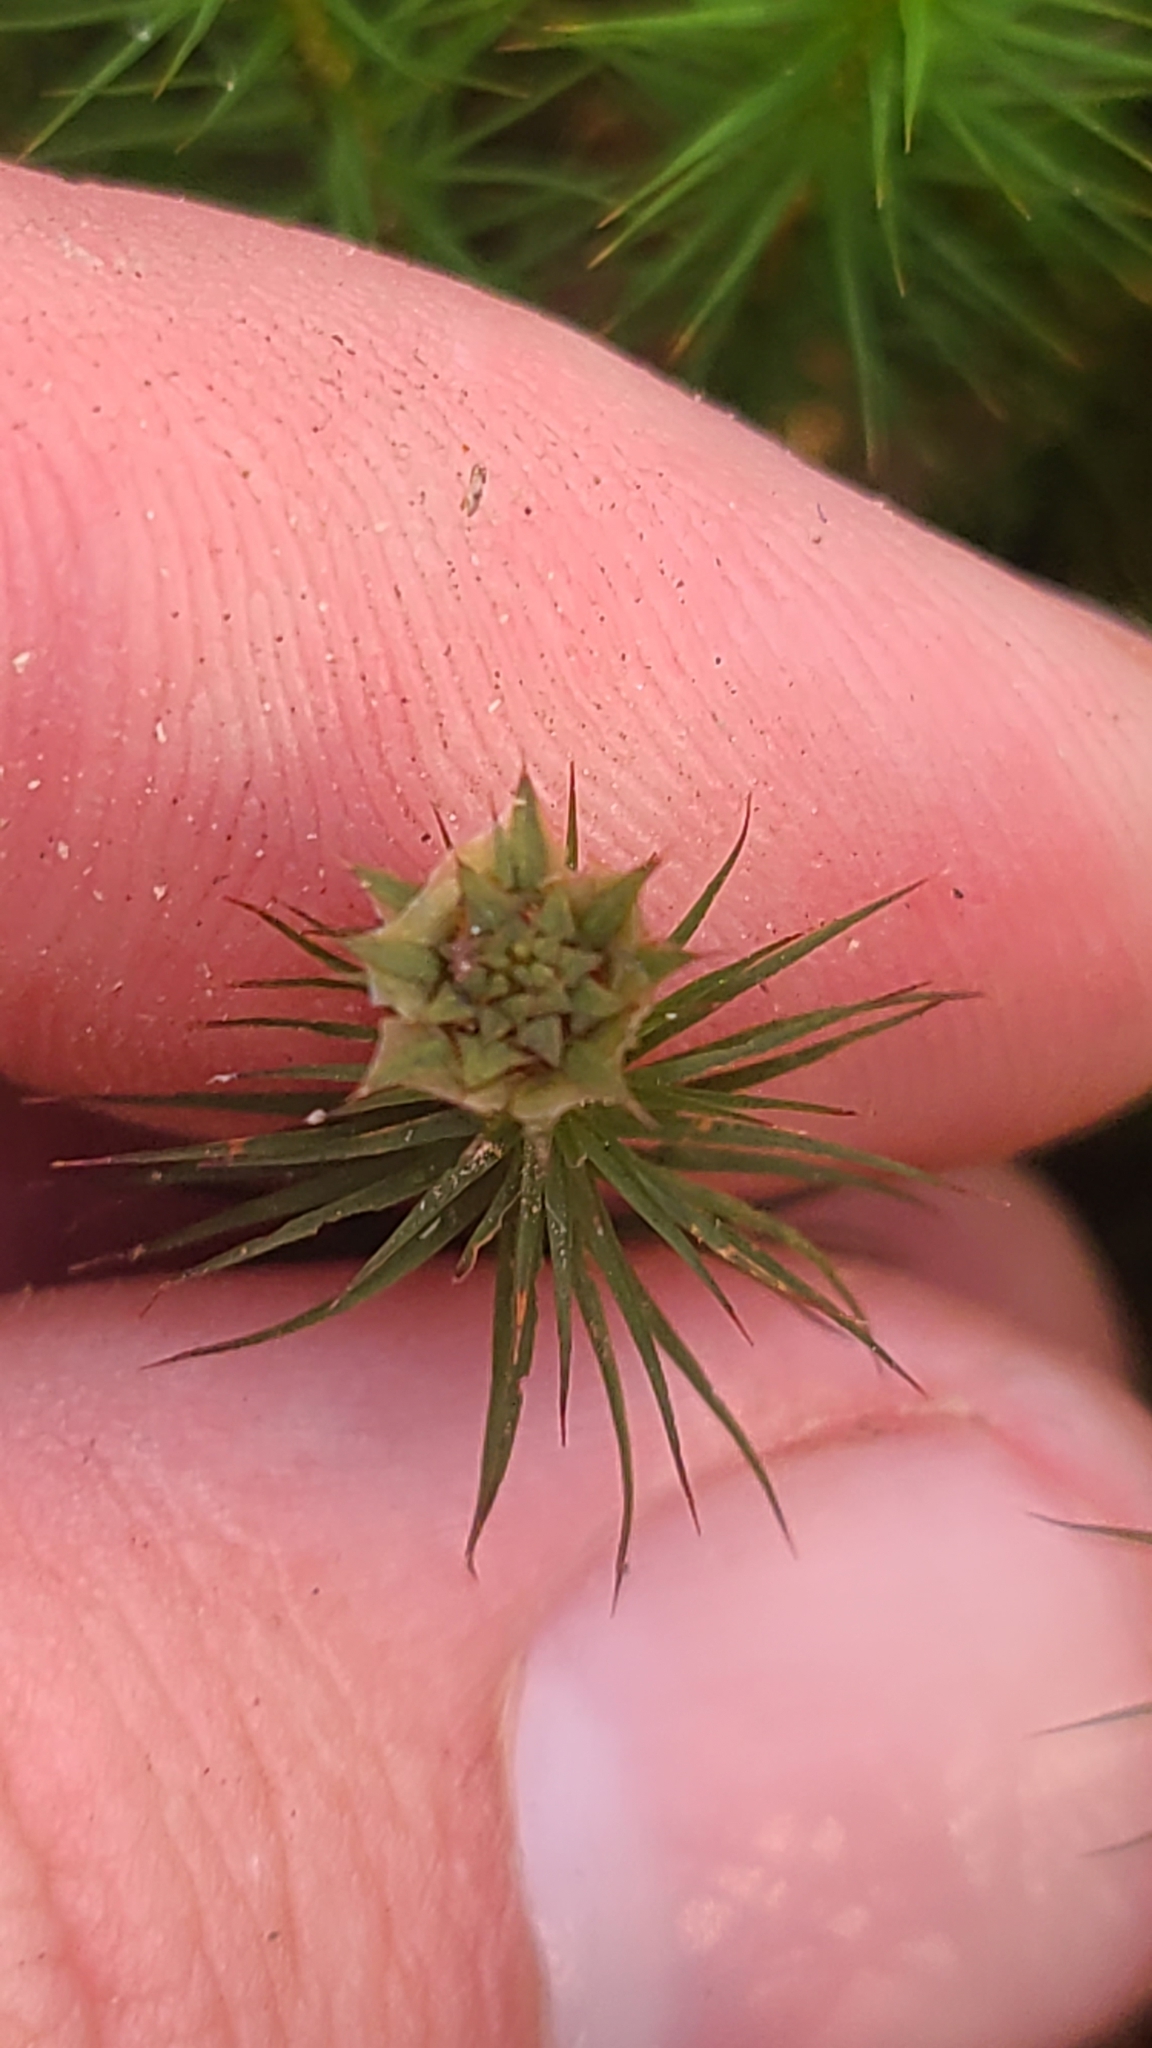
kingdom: Plantae
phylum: Bryophyta
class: Polytrichopsida
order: Polytrichales
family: Polytrichaceae
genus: Polytrichum
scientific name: Polytrichum commune
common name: Common haircap
